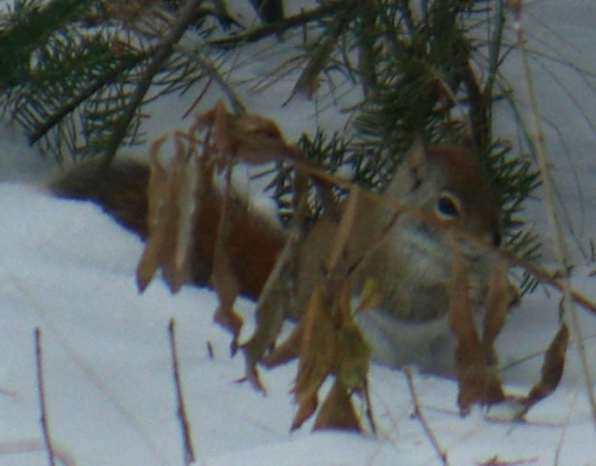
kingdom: Animalia
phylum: Chordata
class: Mammalia
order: Rodentia
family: Sciuridae
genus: Tamiasciurus
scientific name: Tamiasciurus hudsonicus
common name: Red squirrel
